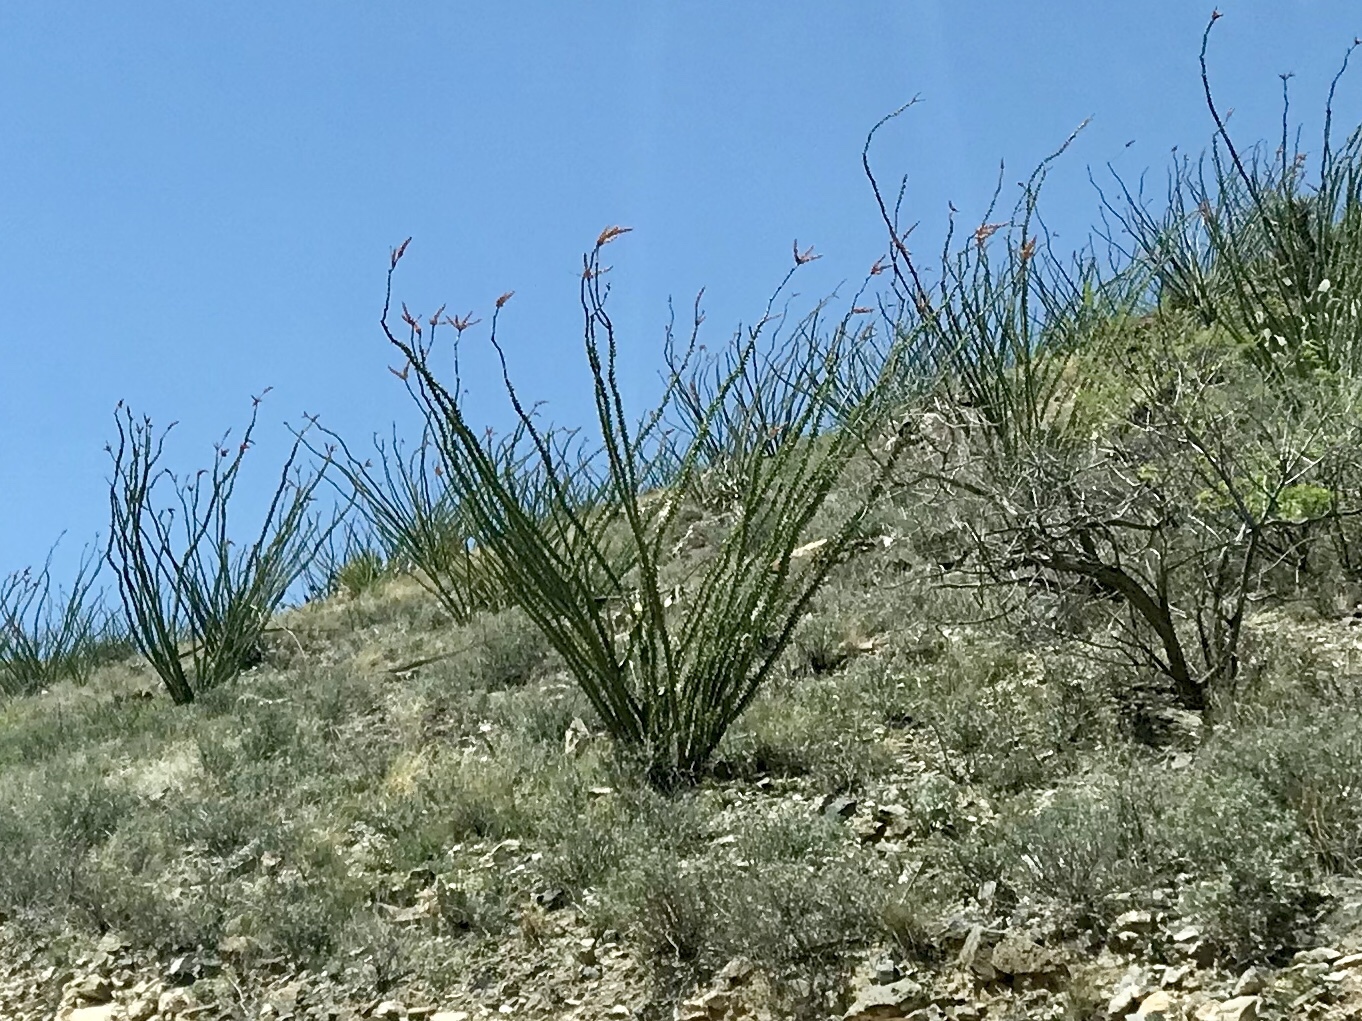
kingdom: Plantae
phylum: Tracheophyta
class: Magnoliopsida
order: Ericales
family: Fouquieriaceae
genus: Fouquieria
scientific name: Fouquieria splendens
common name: Vine-cactus
